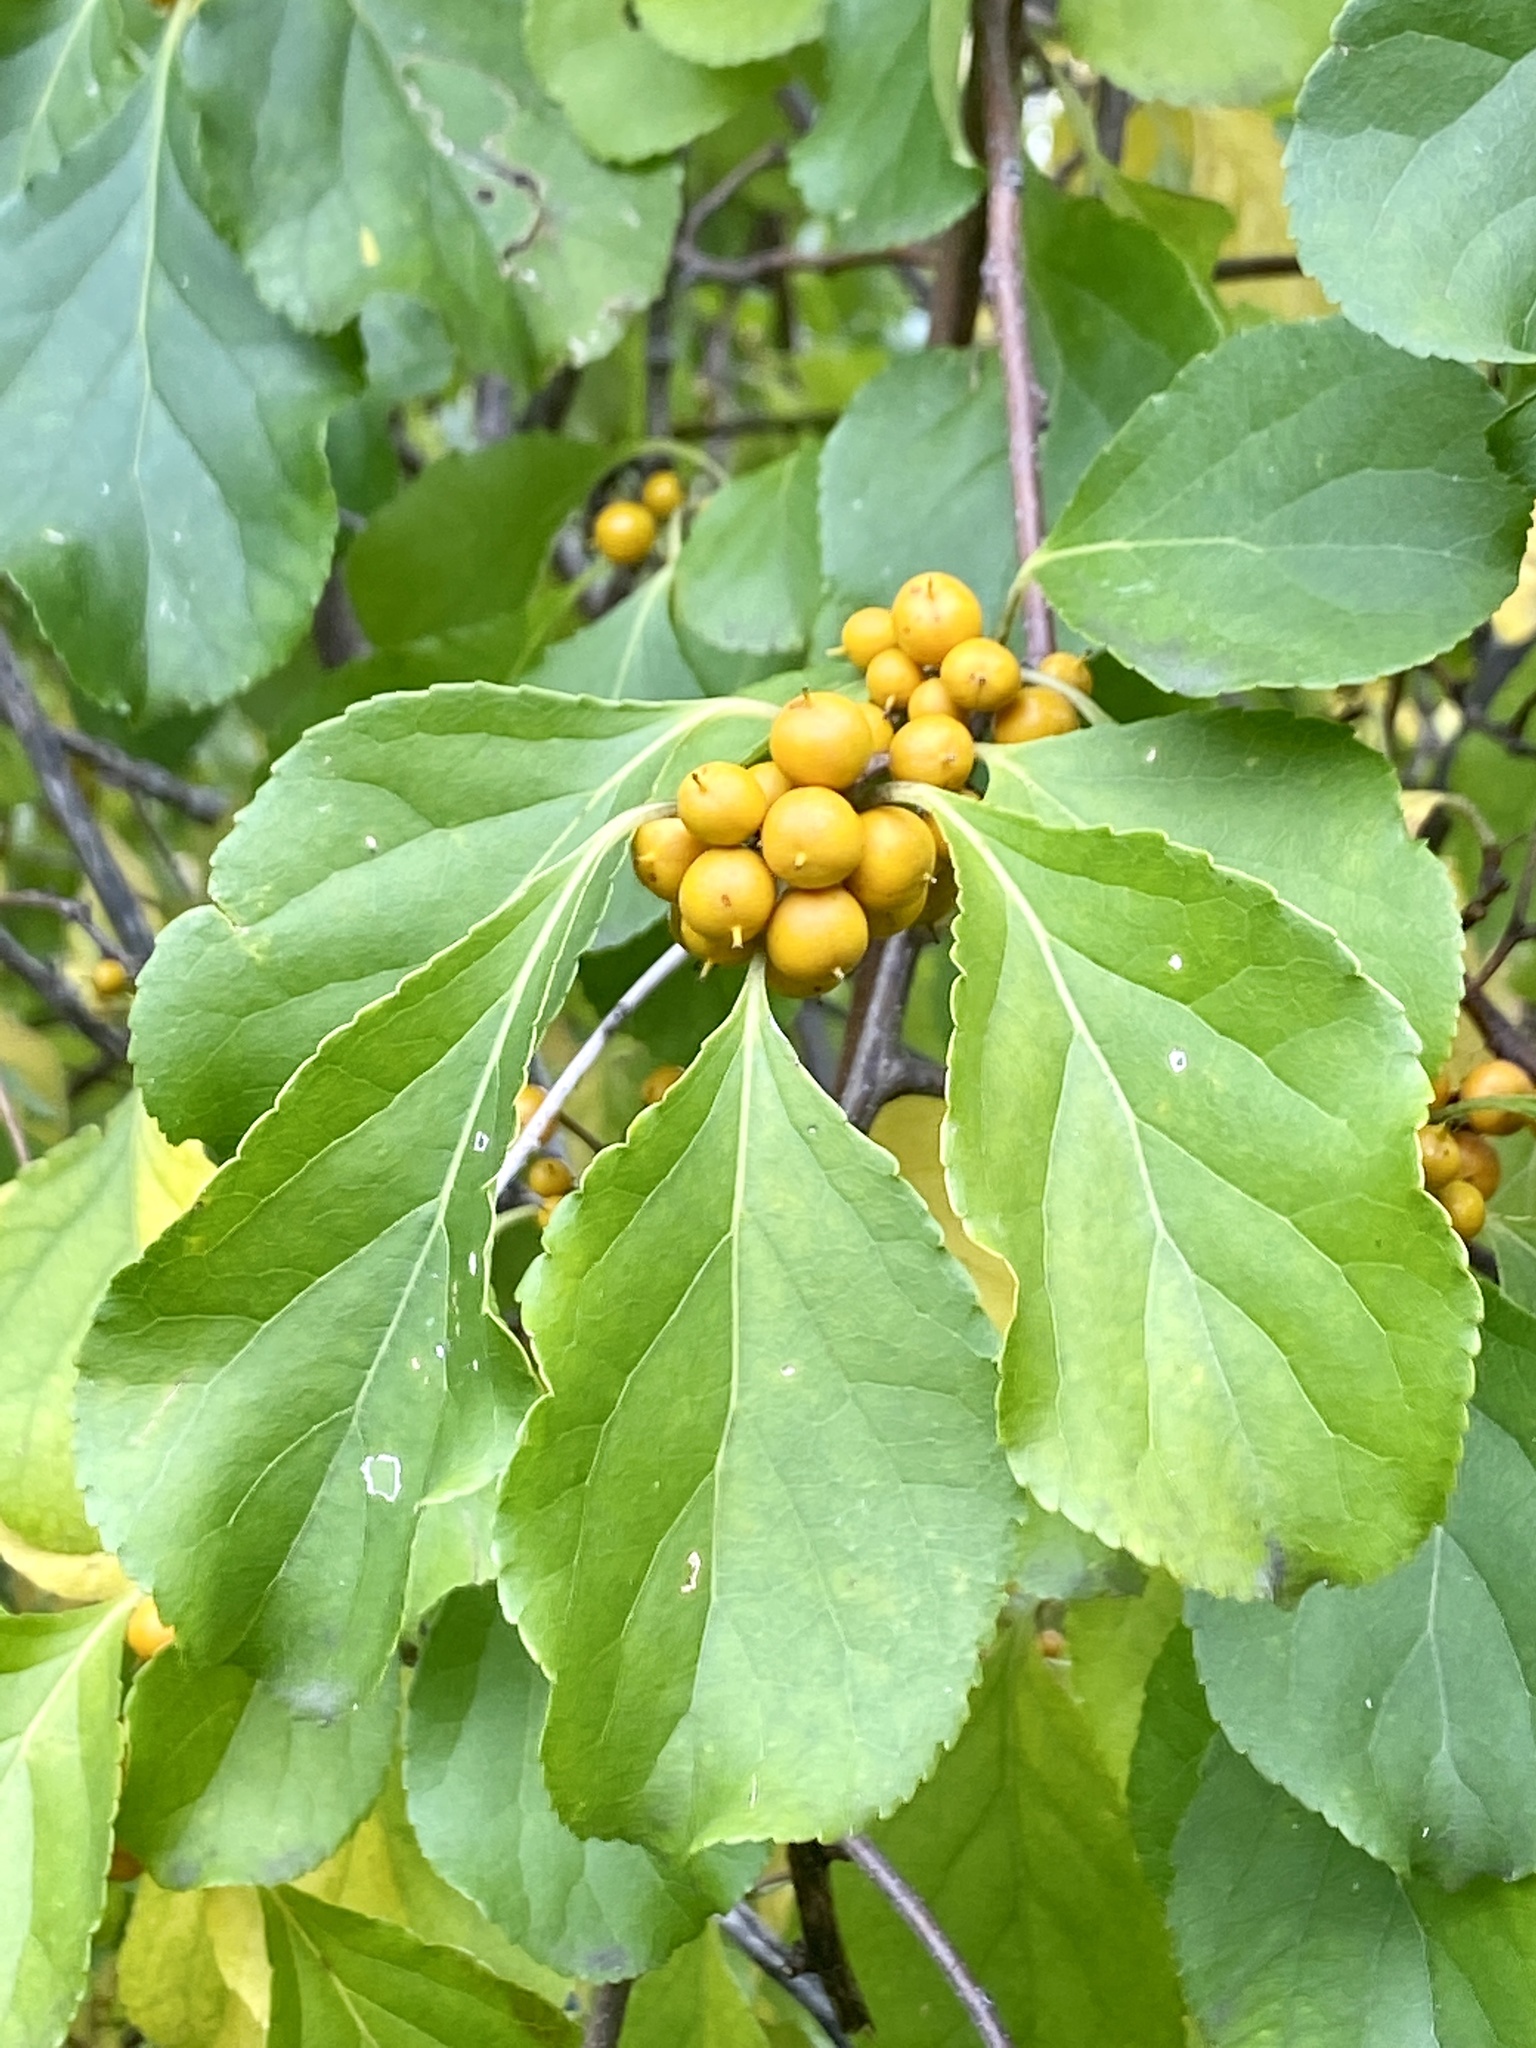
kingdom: Plantae
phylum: Tracheophyta
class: Magnoliopsida
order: Celastrales
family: Celastraceae
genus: Celastrus
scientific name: Celastrus orbiculatus
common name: Oriental bittersweet
